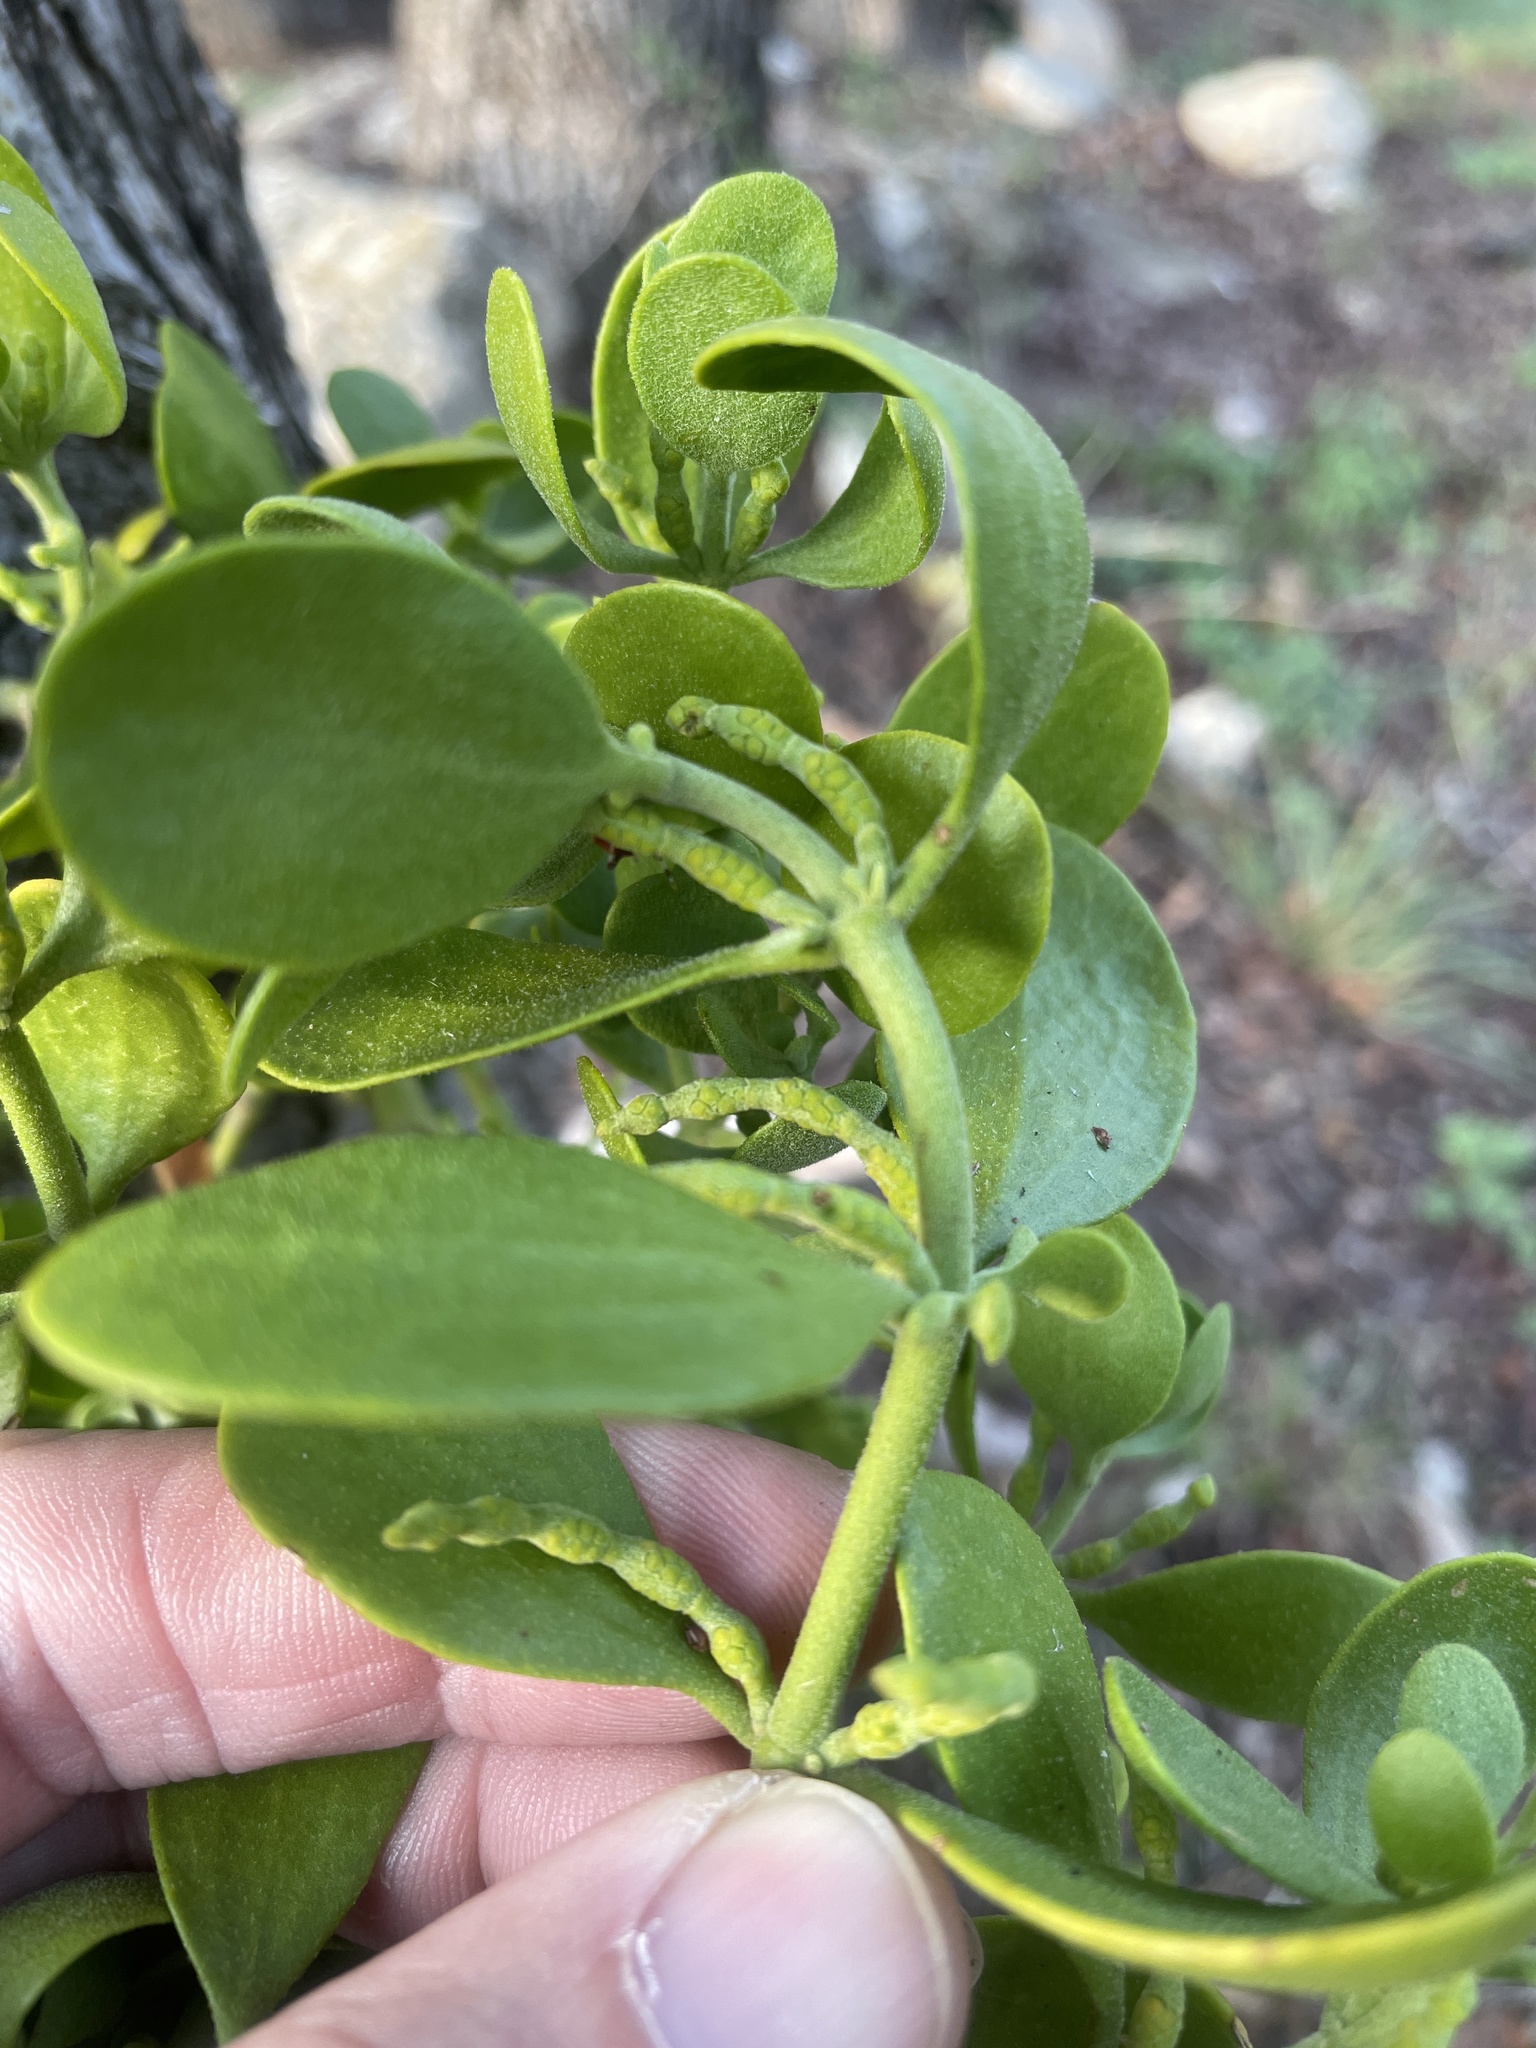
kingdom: Plantae
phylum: Tracheophyta
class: Magnoliopsida
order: Santalales
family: Viscaceae
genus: Phoradendron
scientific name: Phoradendron leucarpum
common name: Pacific mistletoe
